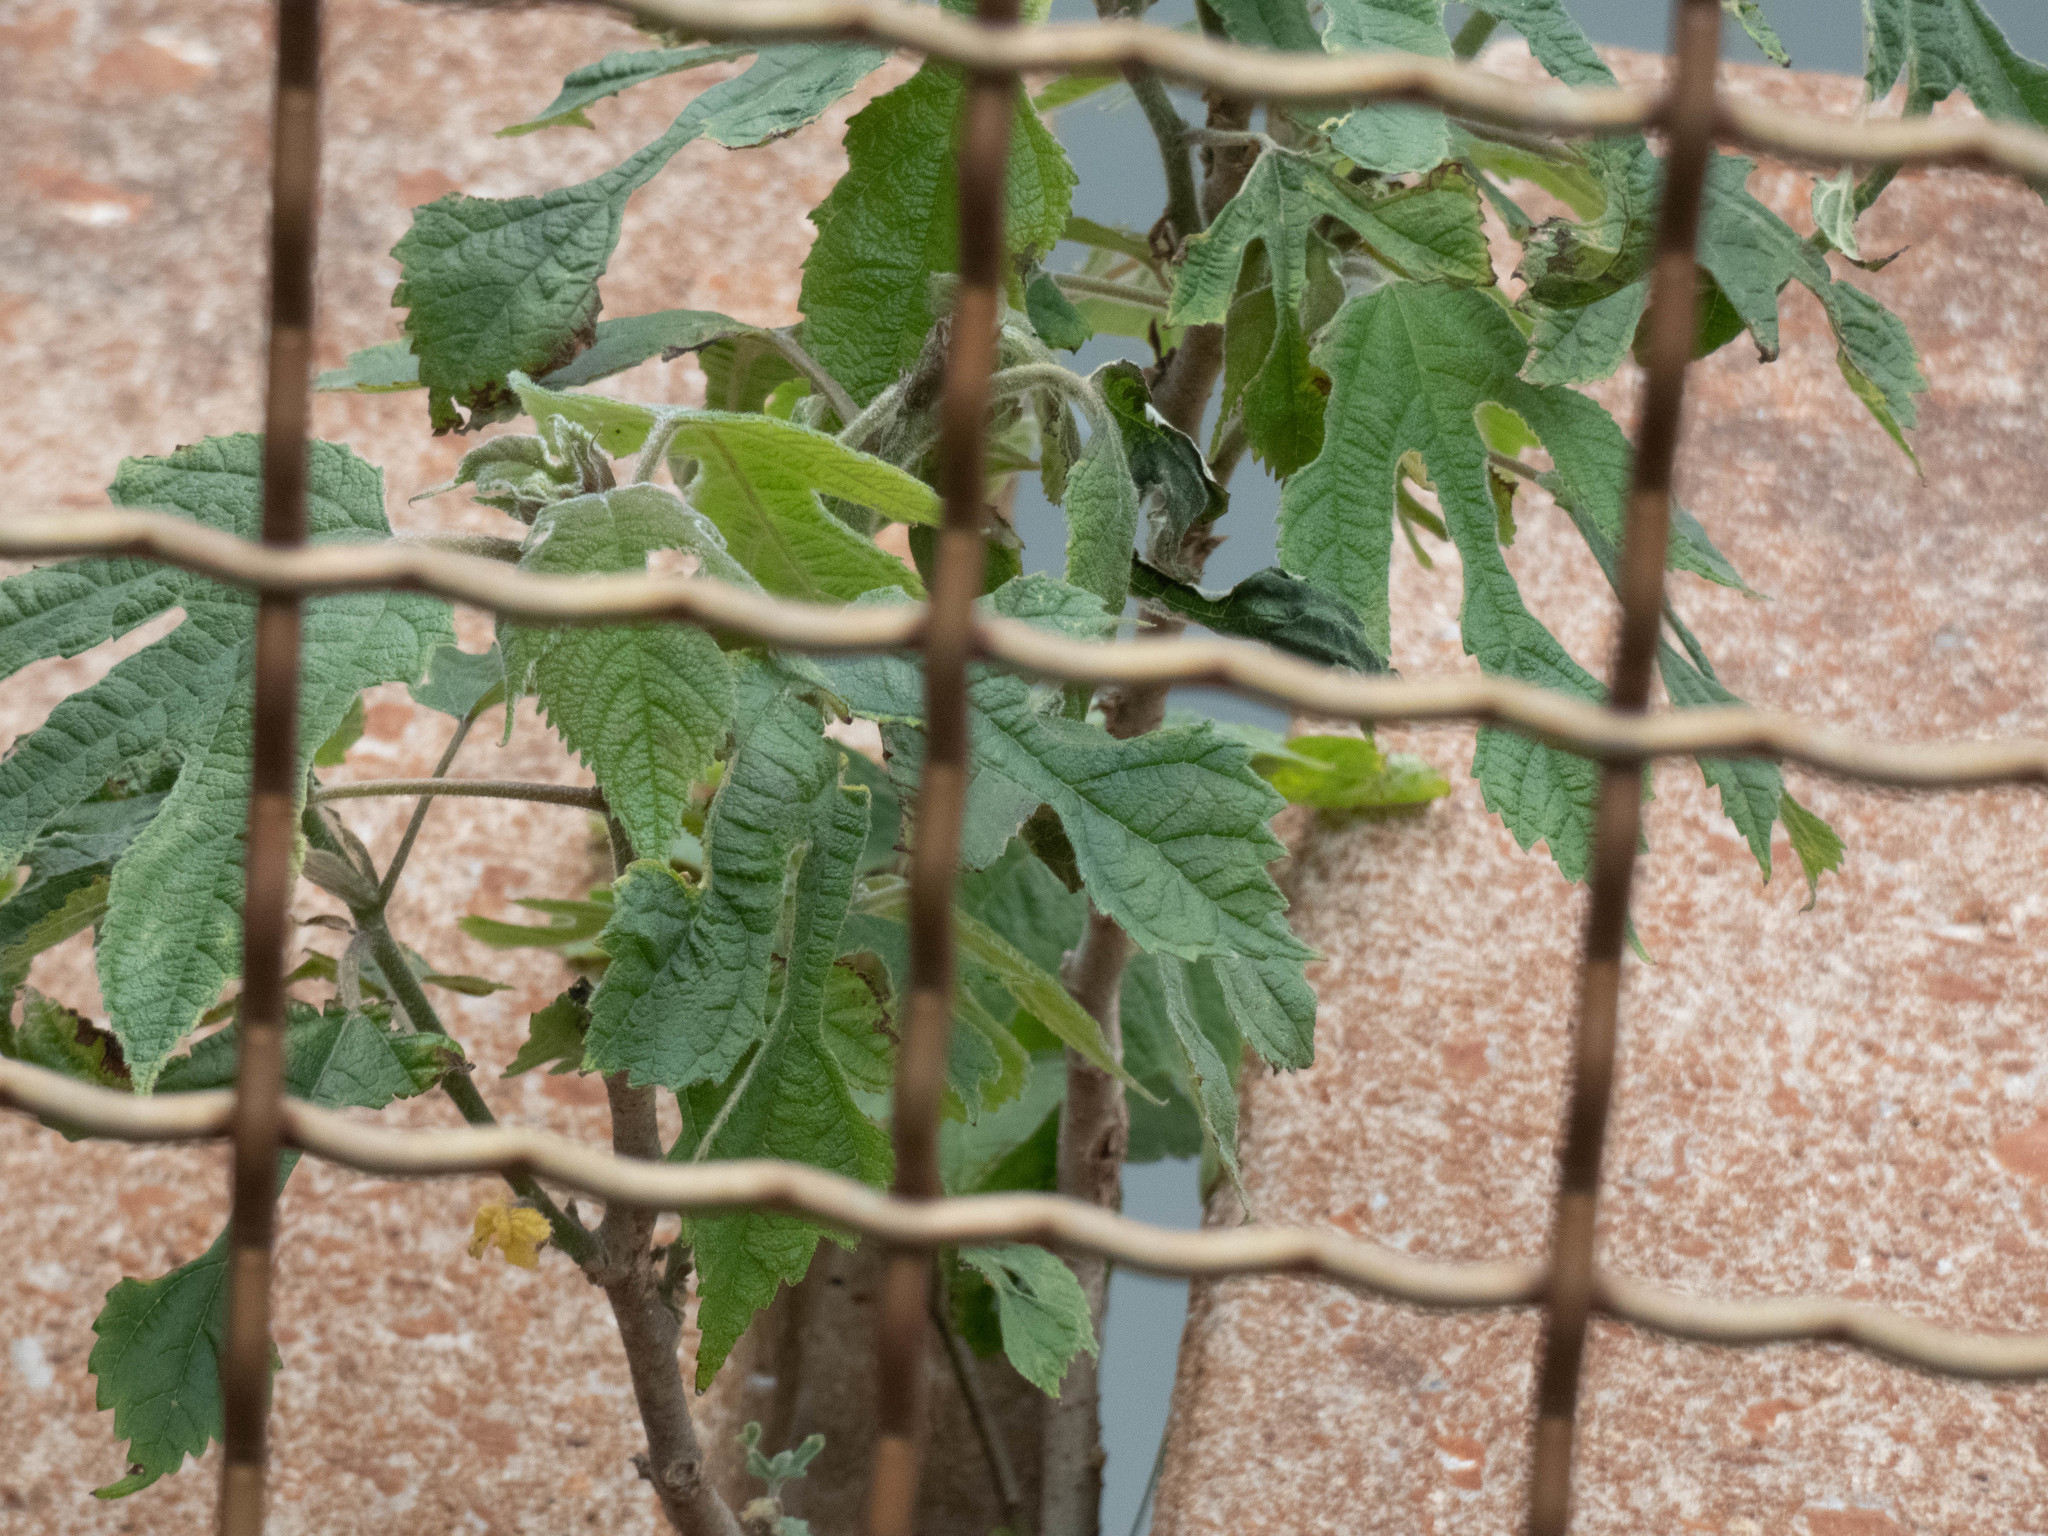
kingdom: Plantae
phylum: Tracheophyta
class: Magnoliopsida
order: Rosales
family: Moraceae
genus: Broussonetia
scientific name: Broussonetia papyrifera
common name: Paper mulberry
